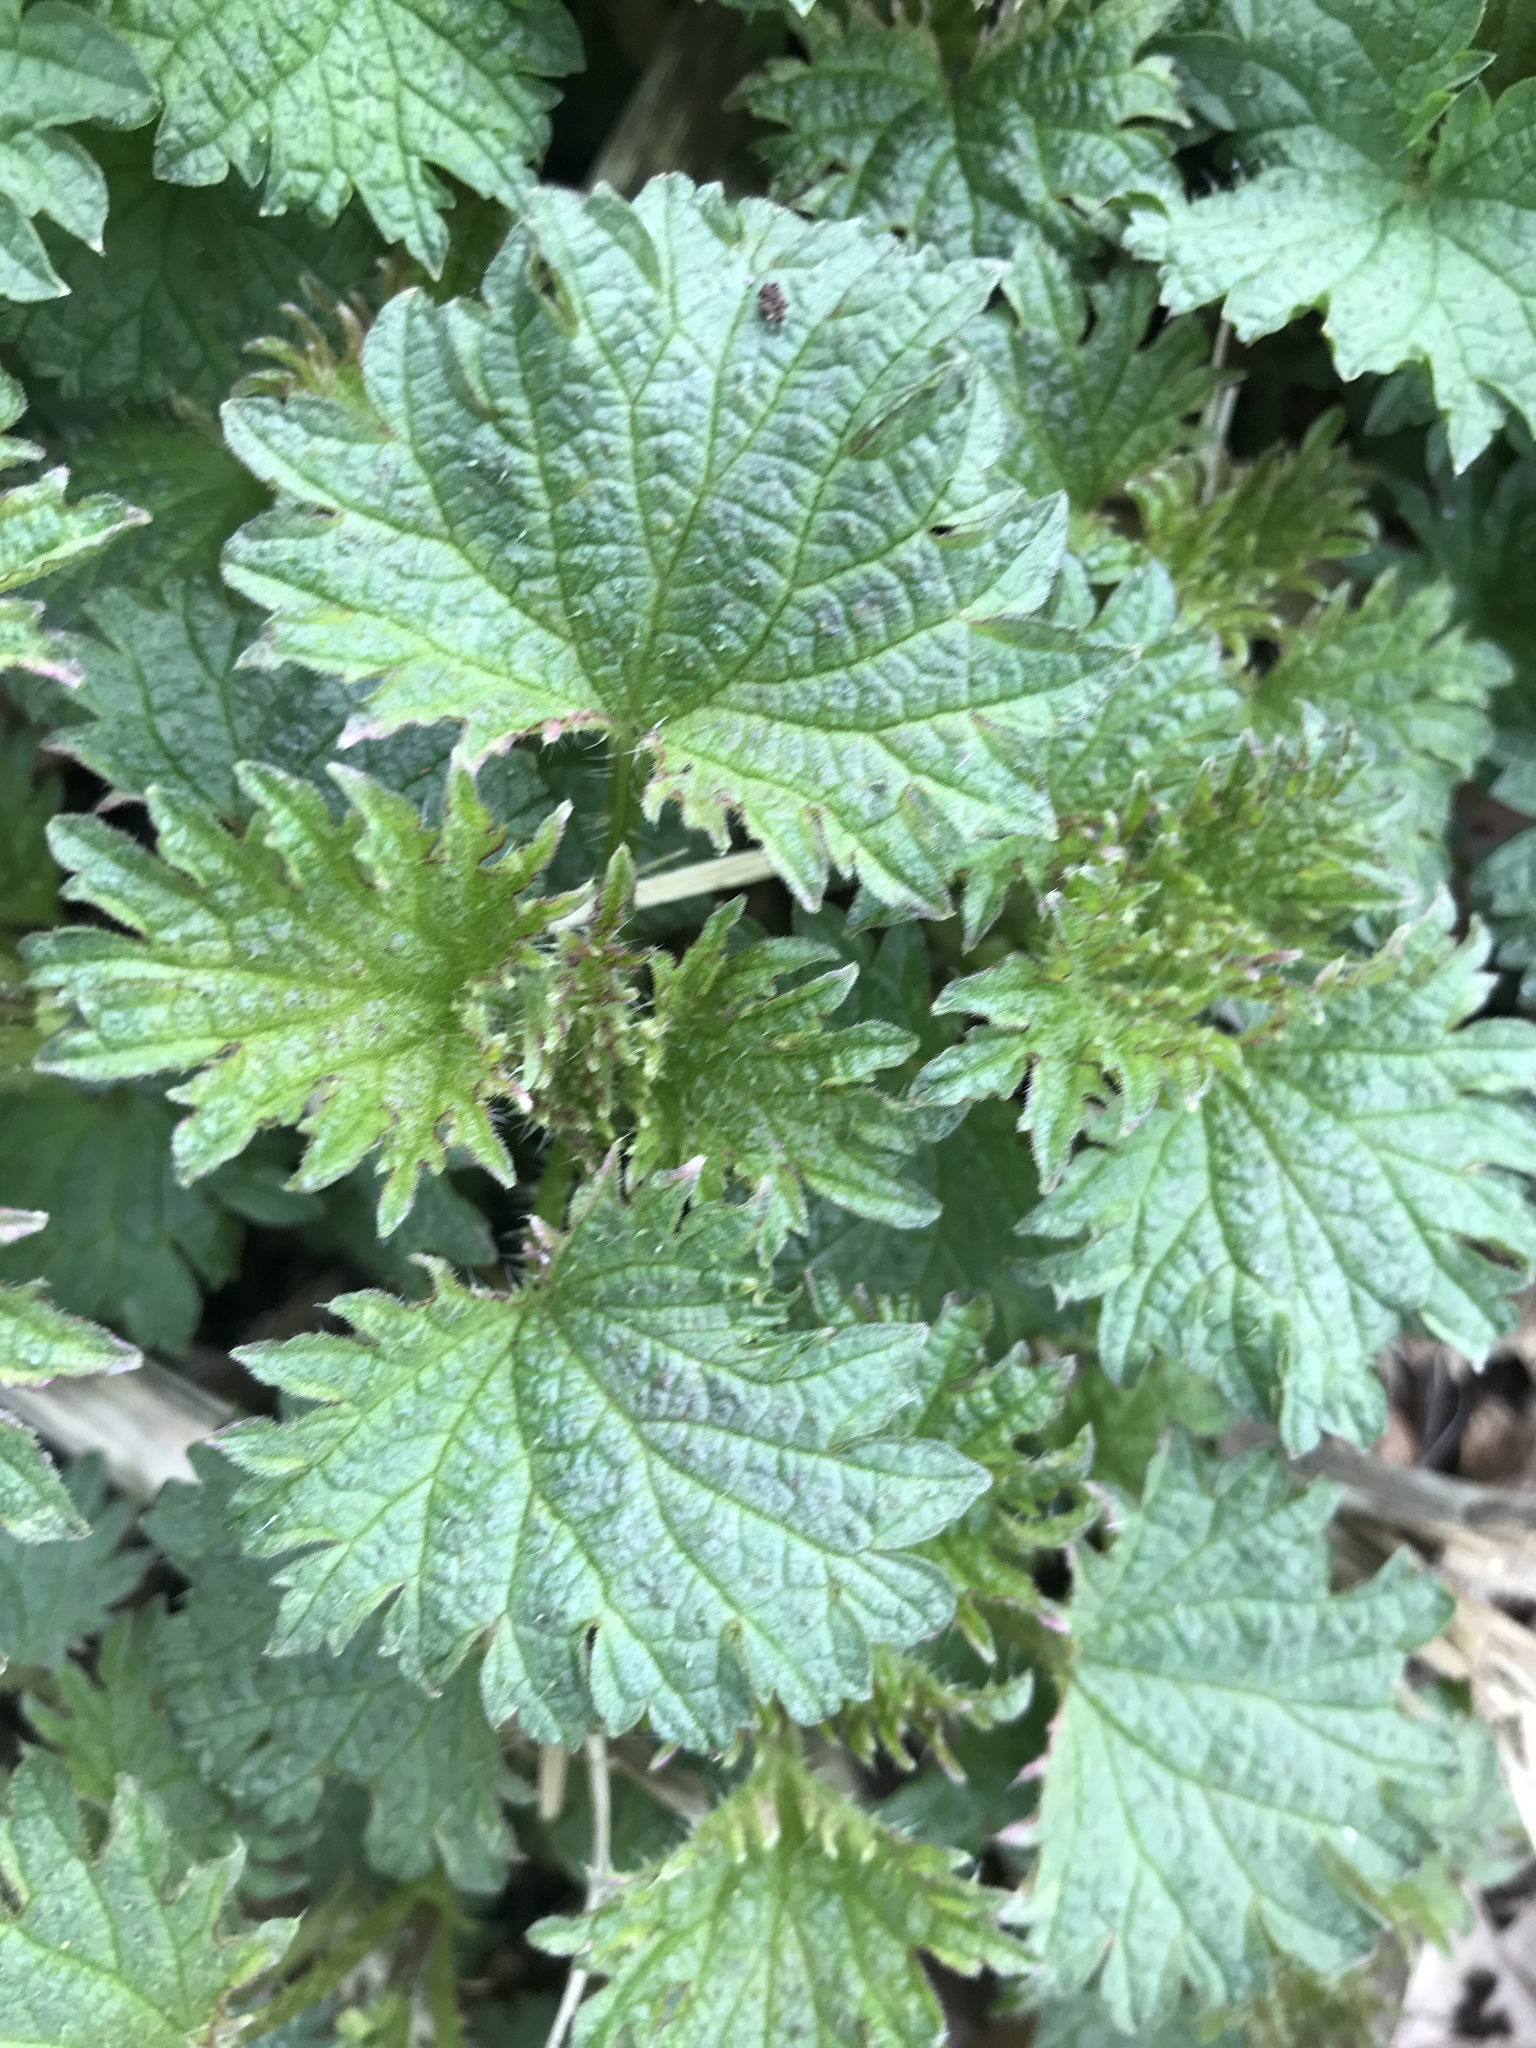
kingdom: Plantae
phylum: Tracheophyta
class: Magnoliopsida
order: Rosales
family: Urticaceae
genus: Urtica
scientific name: Urtica dioica
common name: Common nettle
